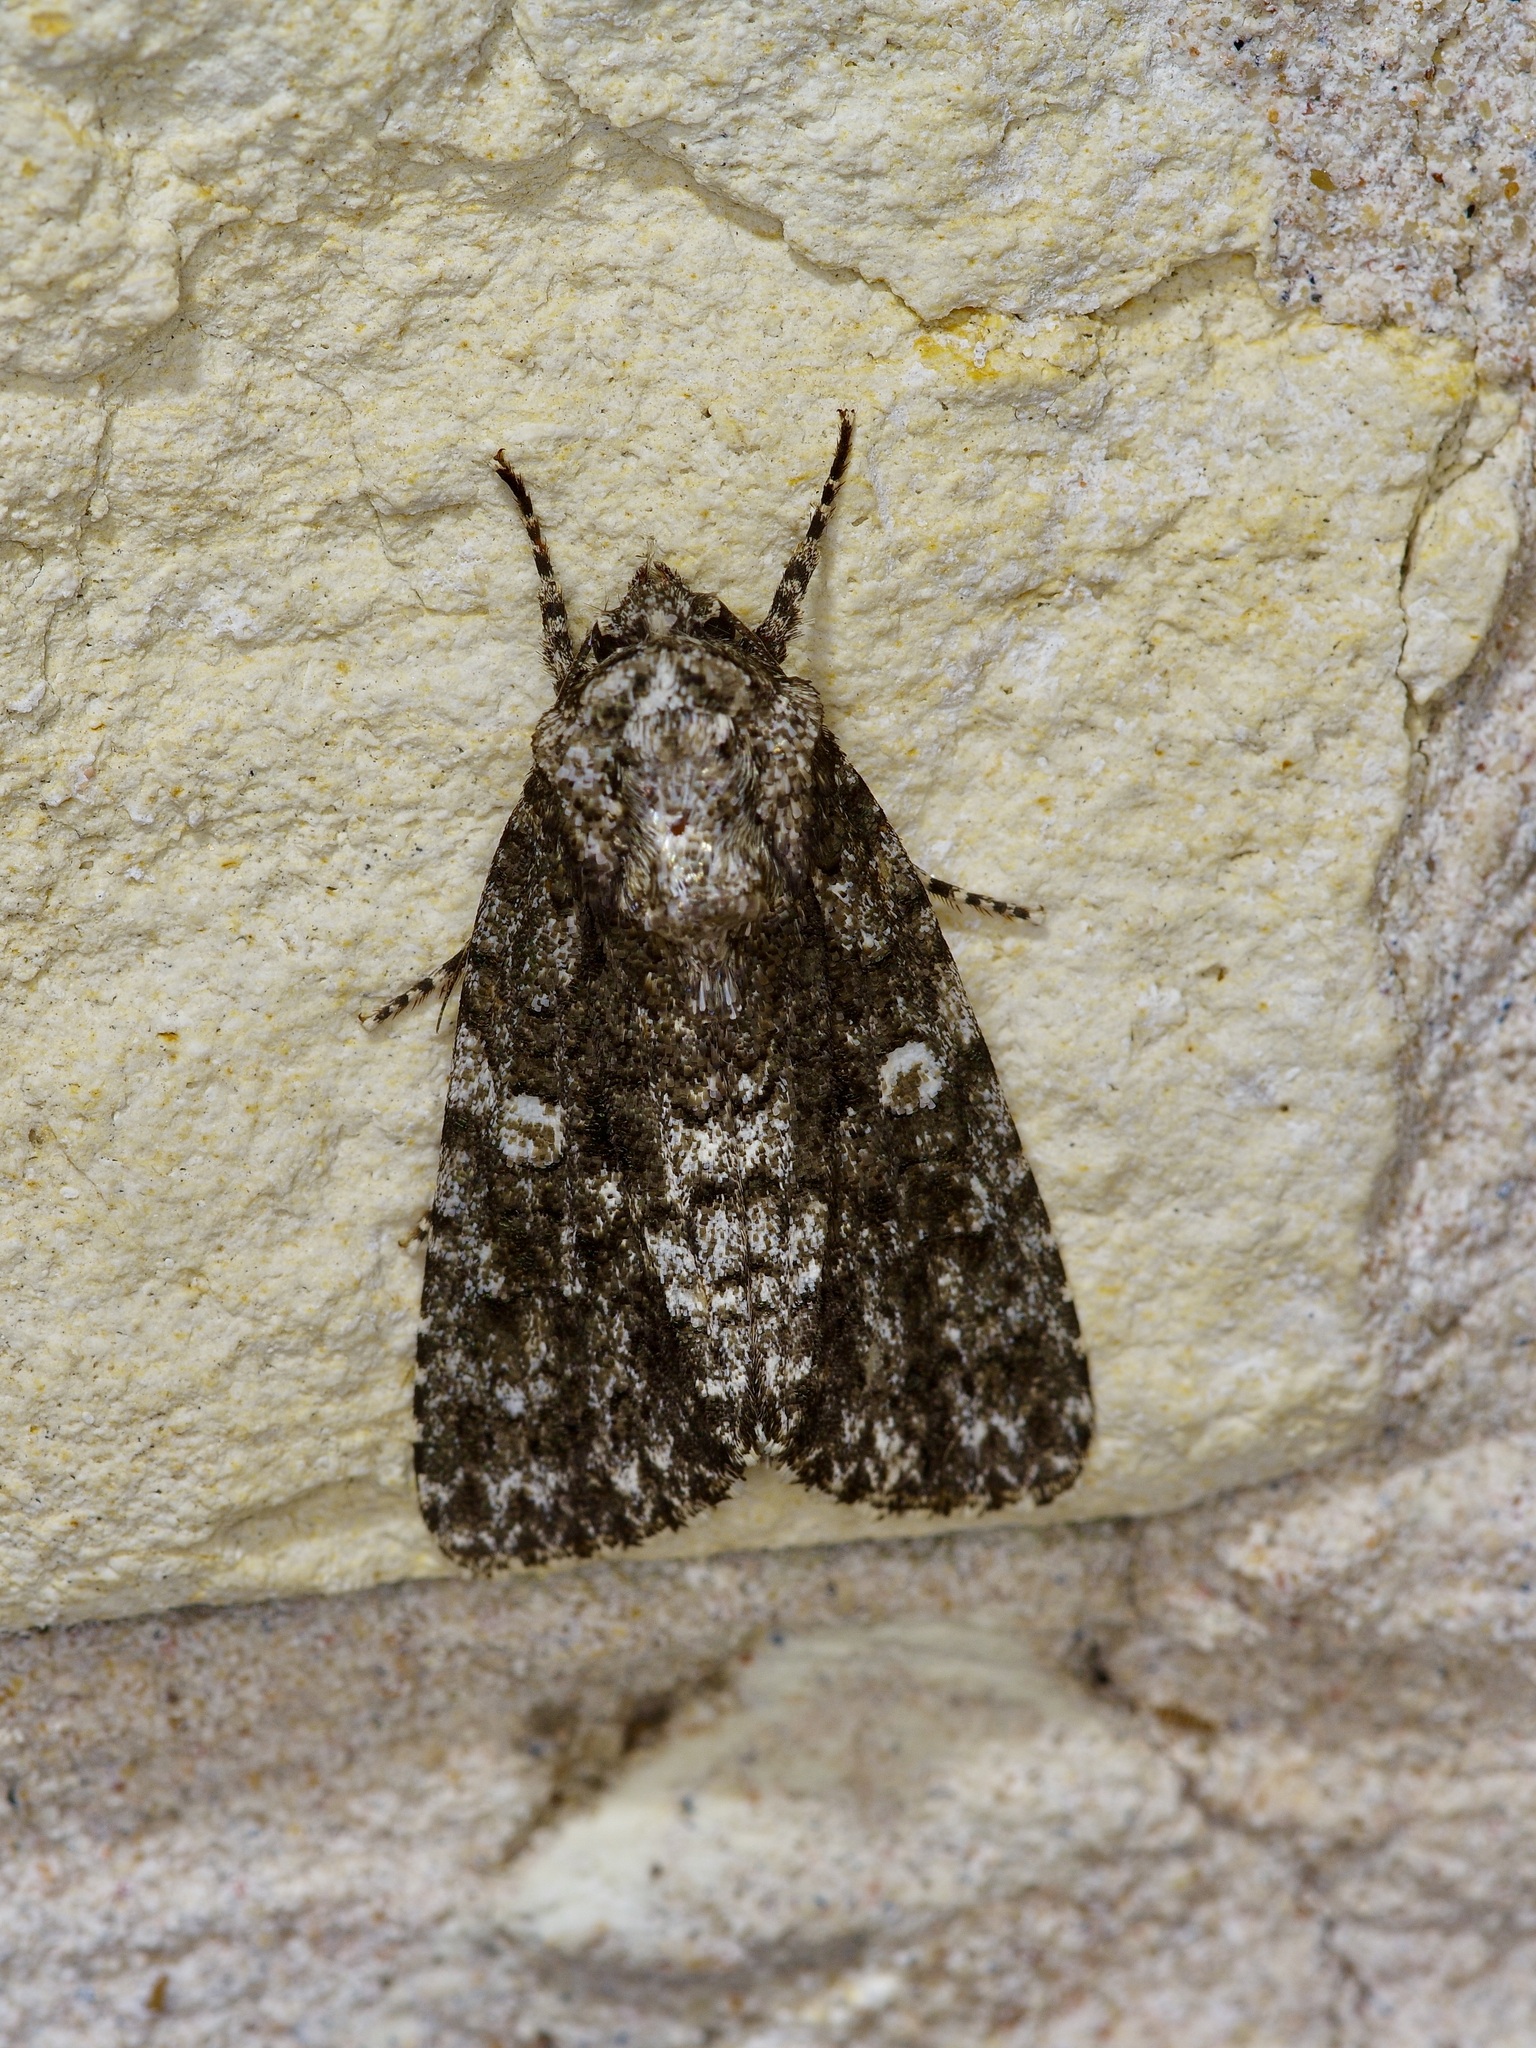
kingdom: Animalia
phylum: Arthropoda
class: Insecta
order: Lepidoptera
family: Noctuidae
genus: Acronicta
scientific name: Acronicta afflicta
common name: Afflicted dagger moth
